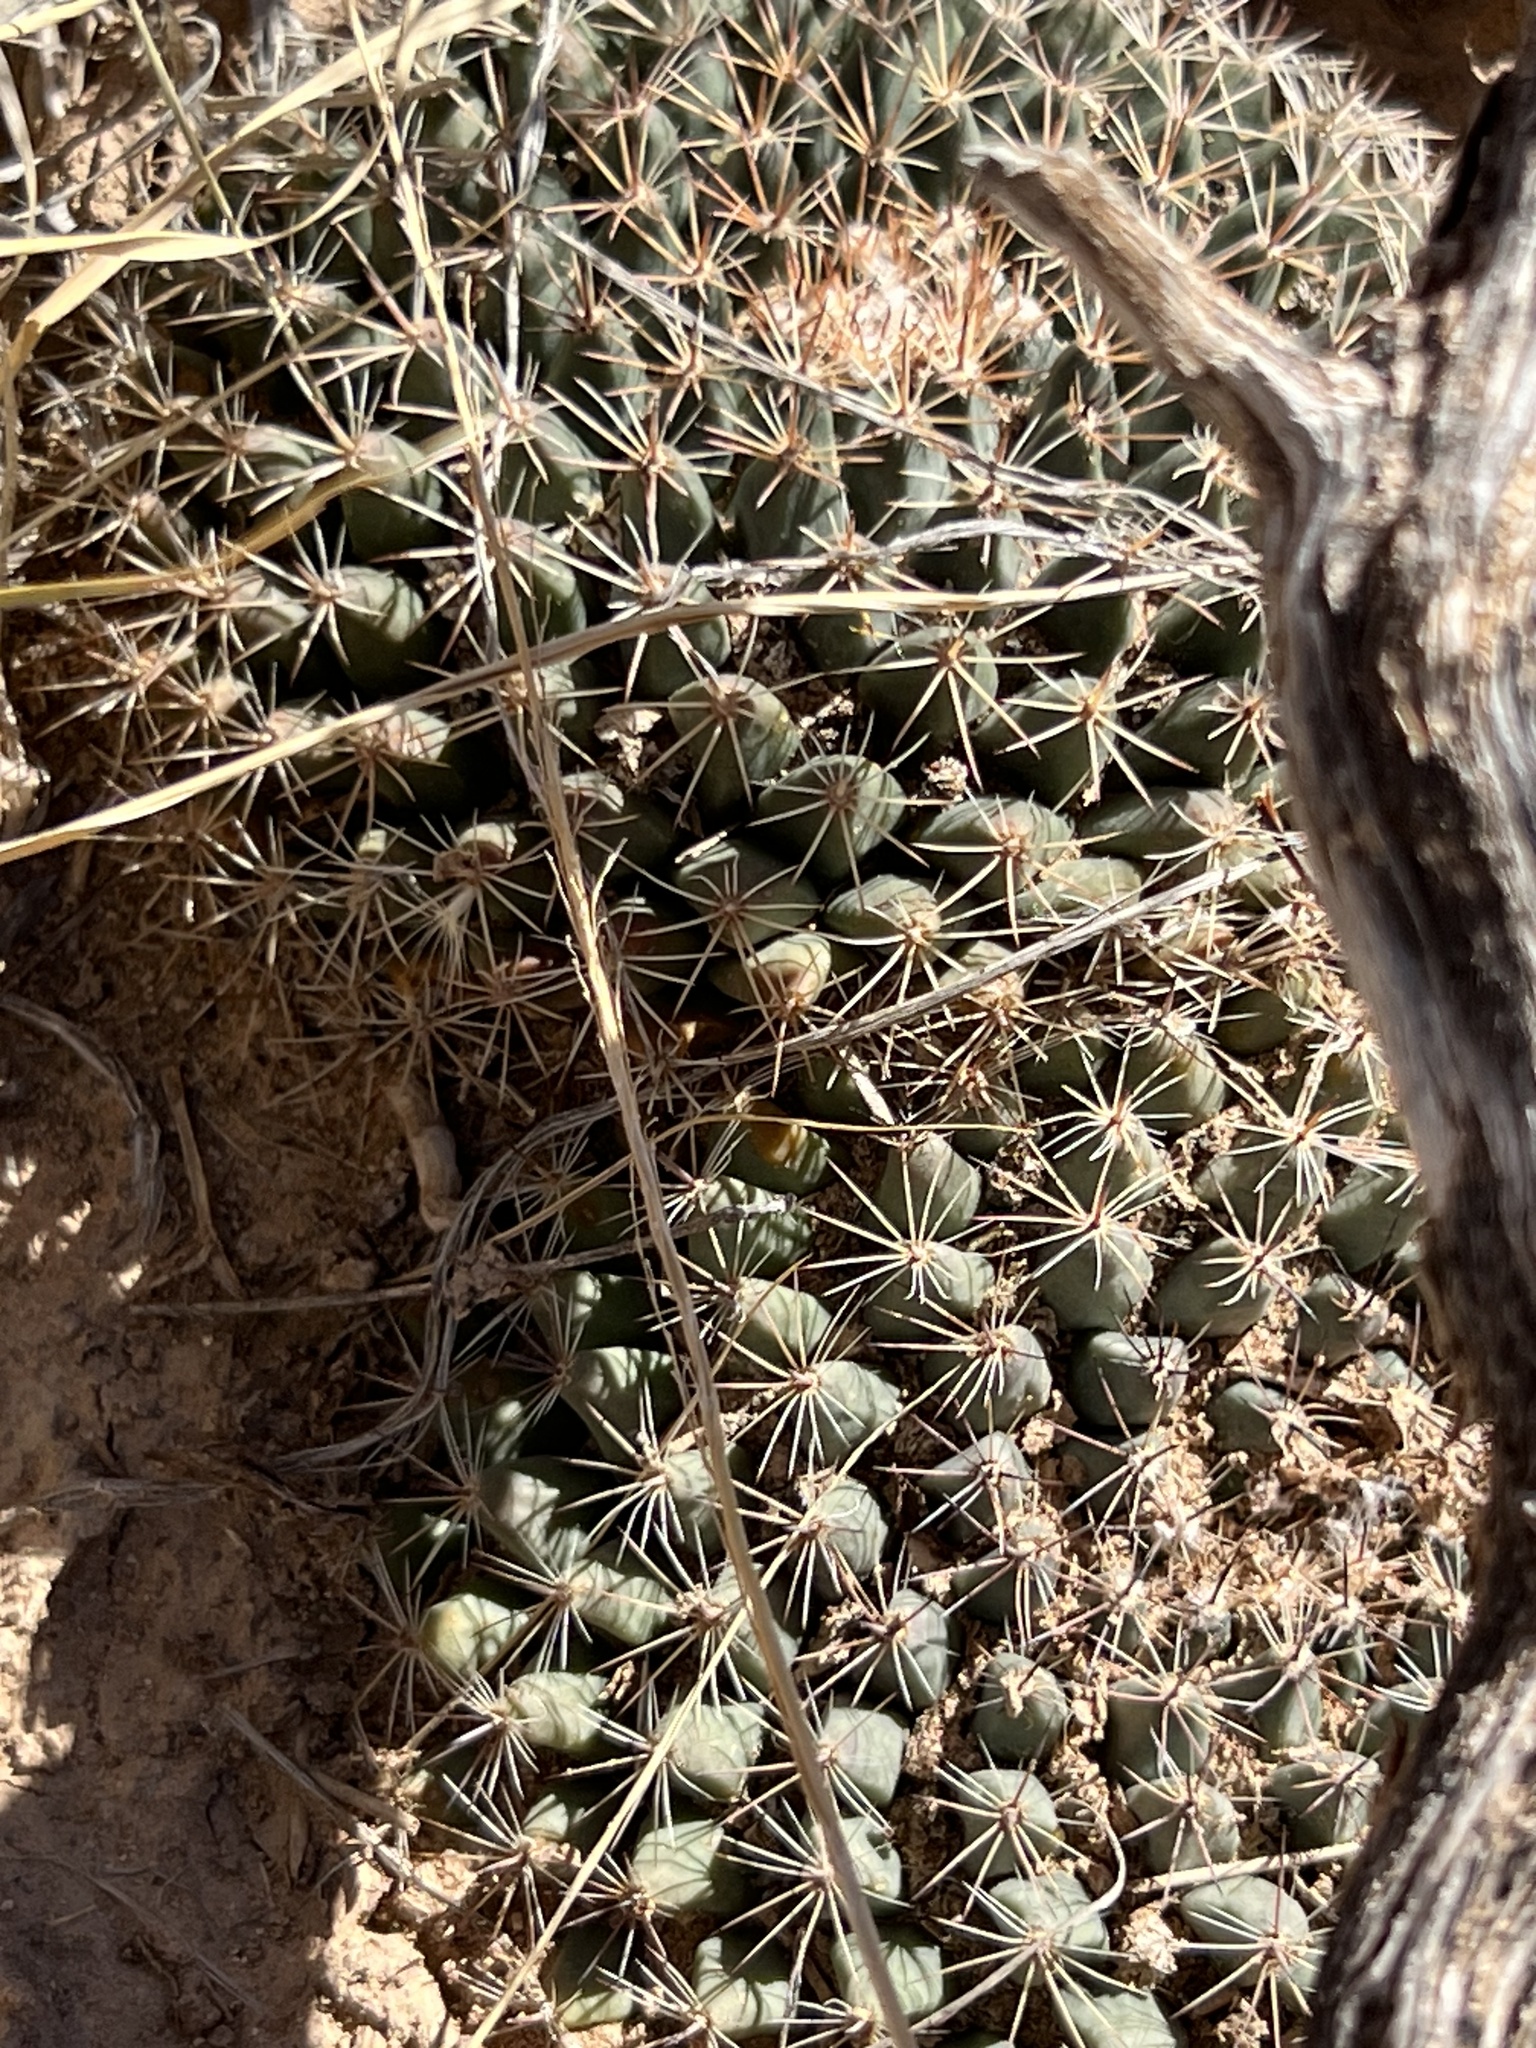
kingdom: Plantae
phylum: Tracheophyta
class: Magnoliopsida
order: Caryophyllales
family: Cactaceae
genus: Mammillaria
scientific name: Mammillaria heyderi
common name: Little nipple cactus
